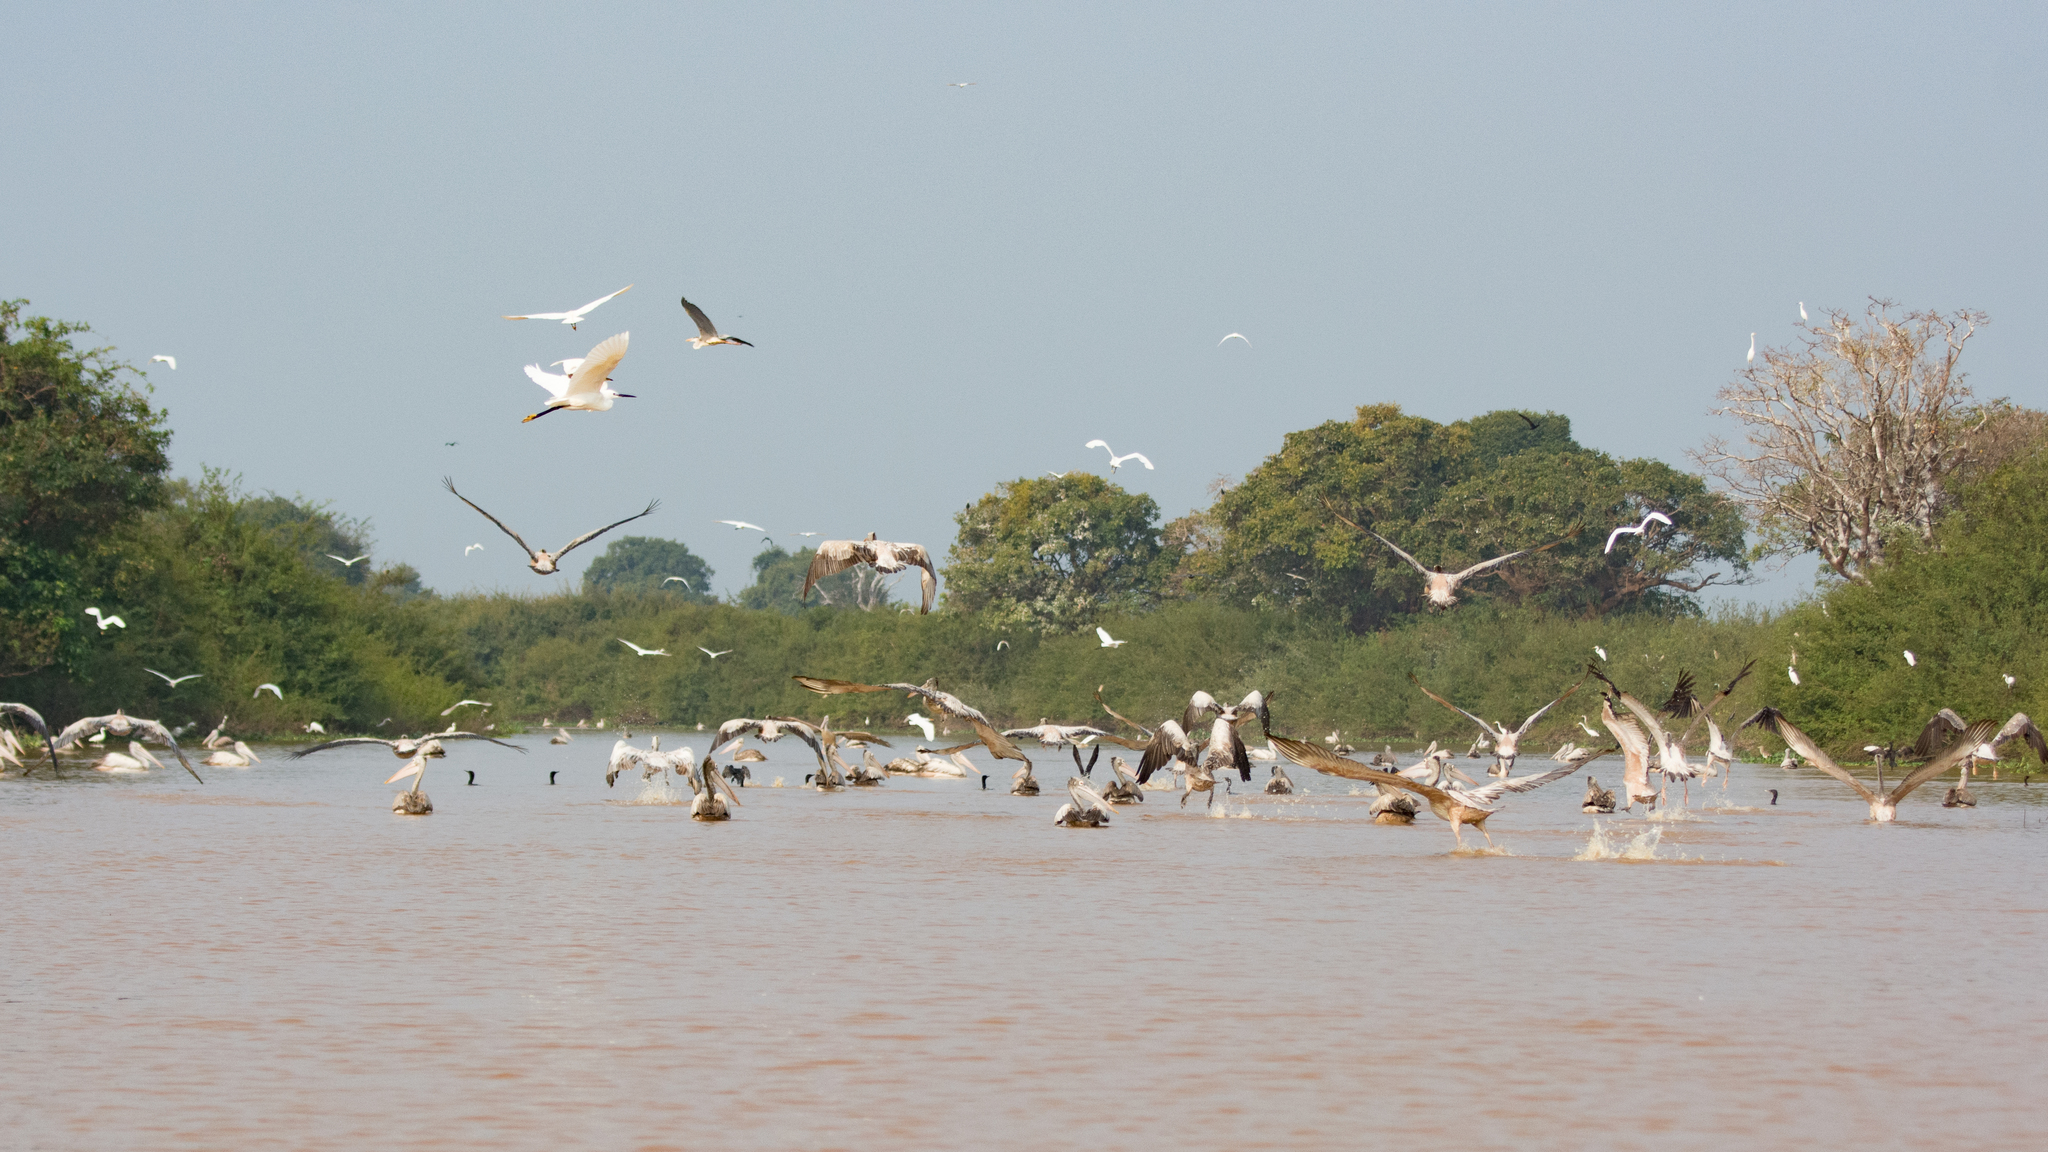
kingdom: Animalia
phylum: Chordata
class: Aves
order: Pelecaniformes
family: Pelecanidae
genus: Pelecanus
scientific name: Pelecanus philippensis
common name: Spot-billed pelican
